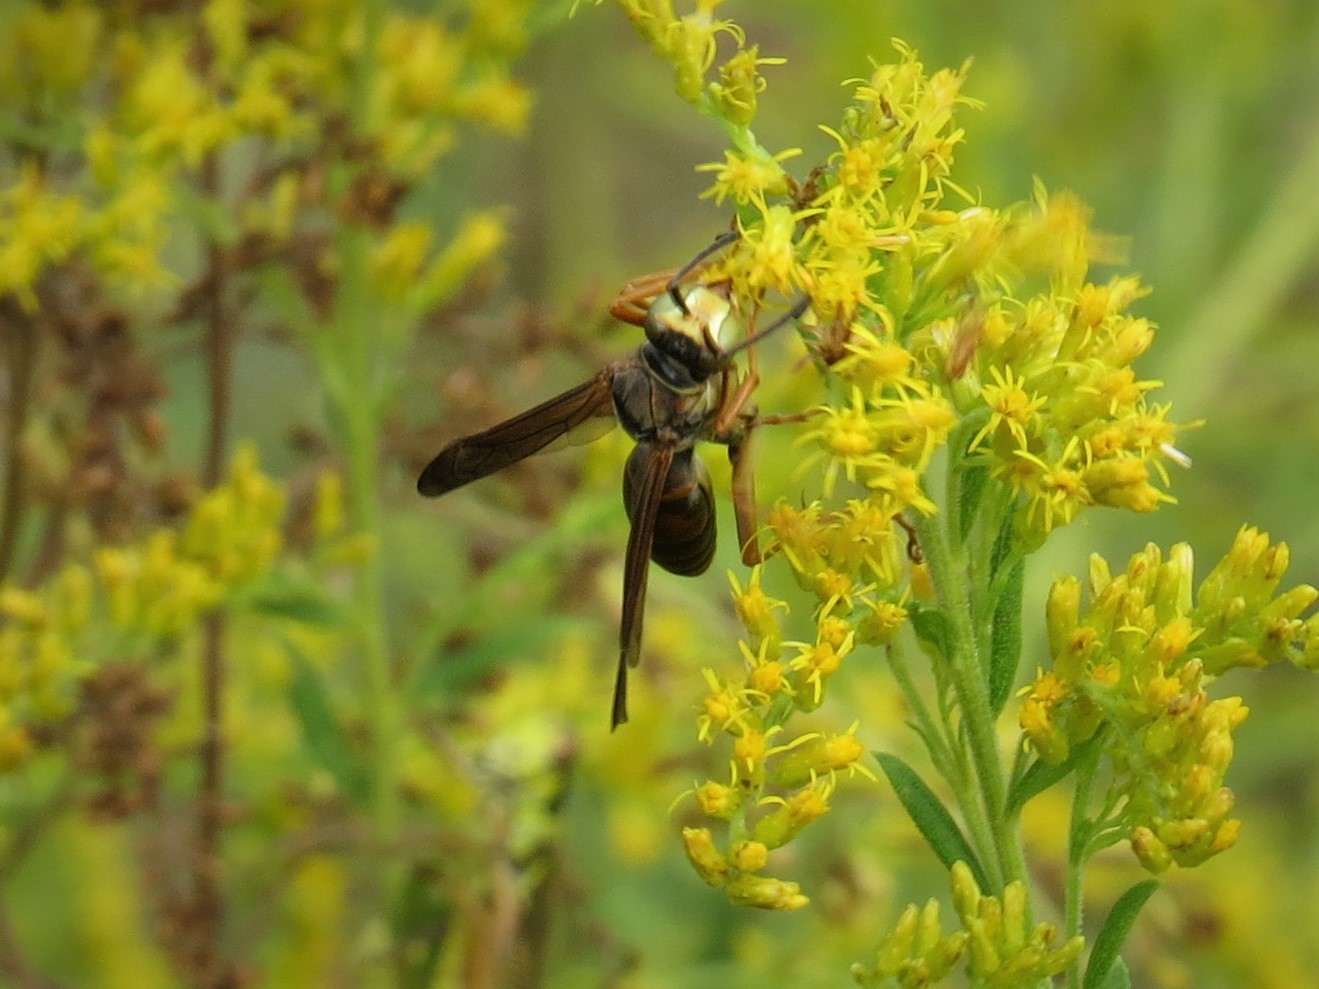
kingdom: Animalia
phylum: Arthropoda
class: Insecta
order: Hymenoptera
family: Eumenidae
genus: Polistes
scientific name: Polistes fuscatus
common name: Dark paper wasp
